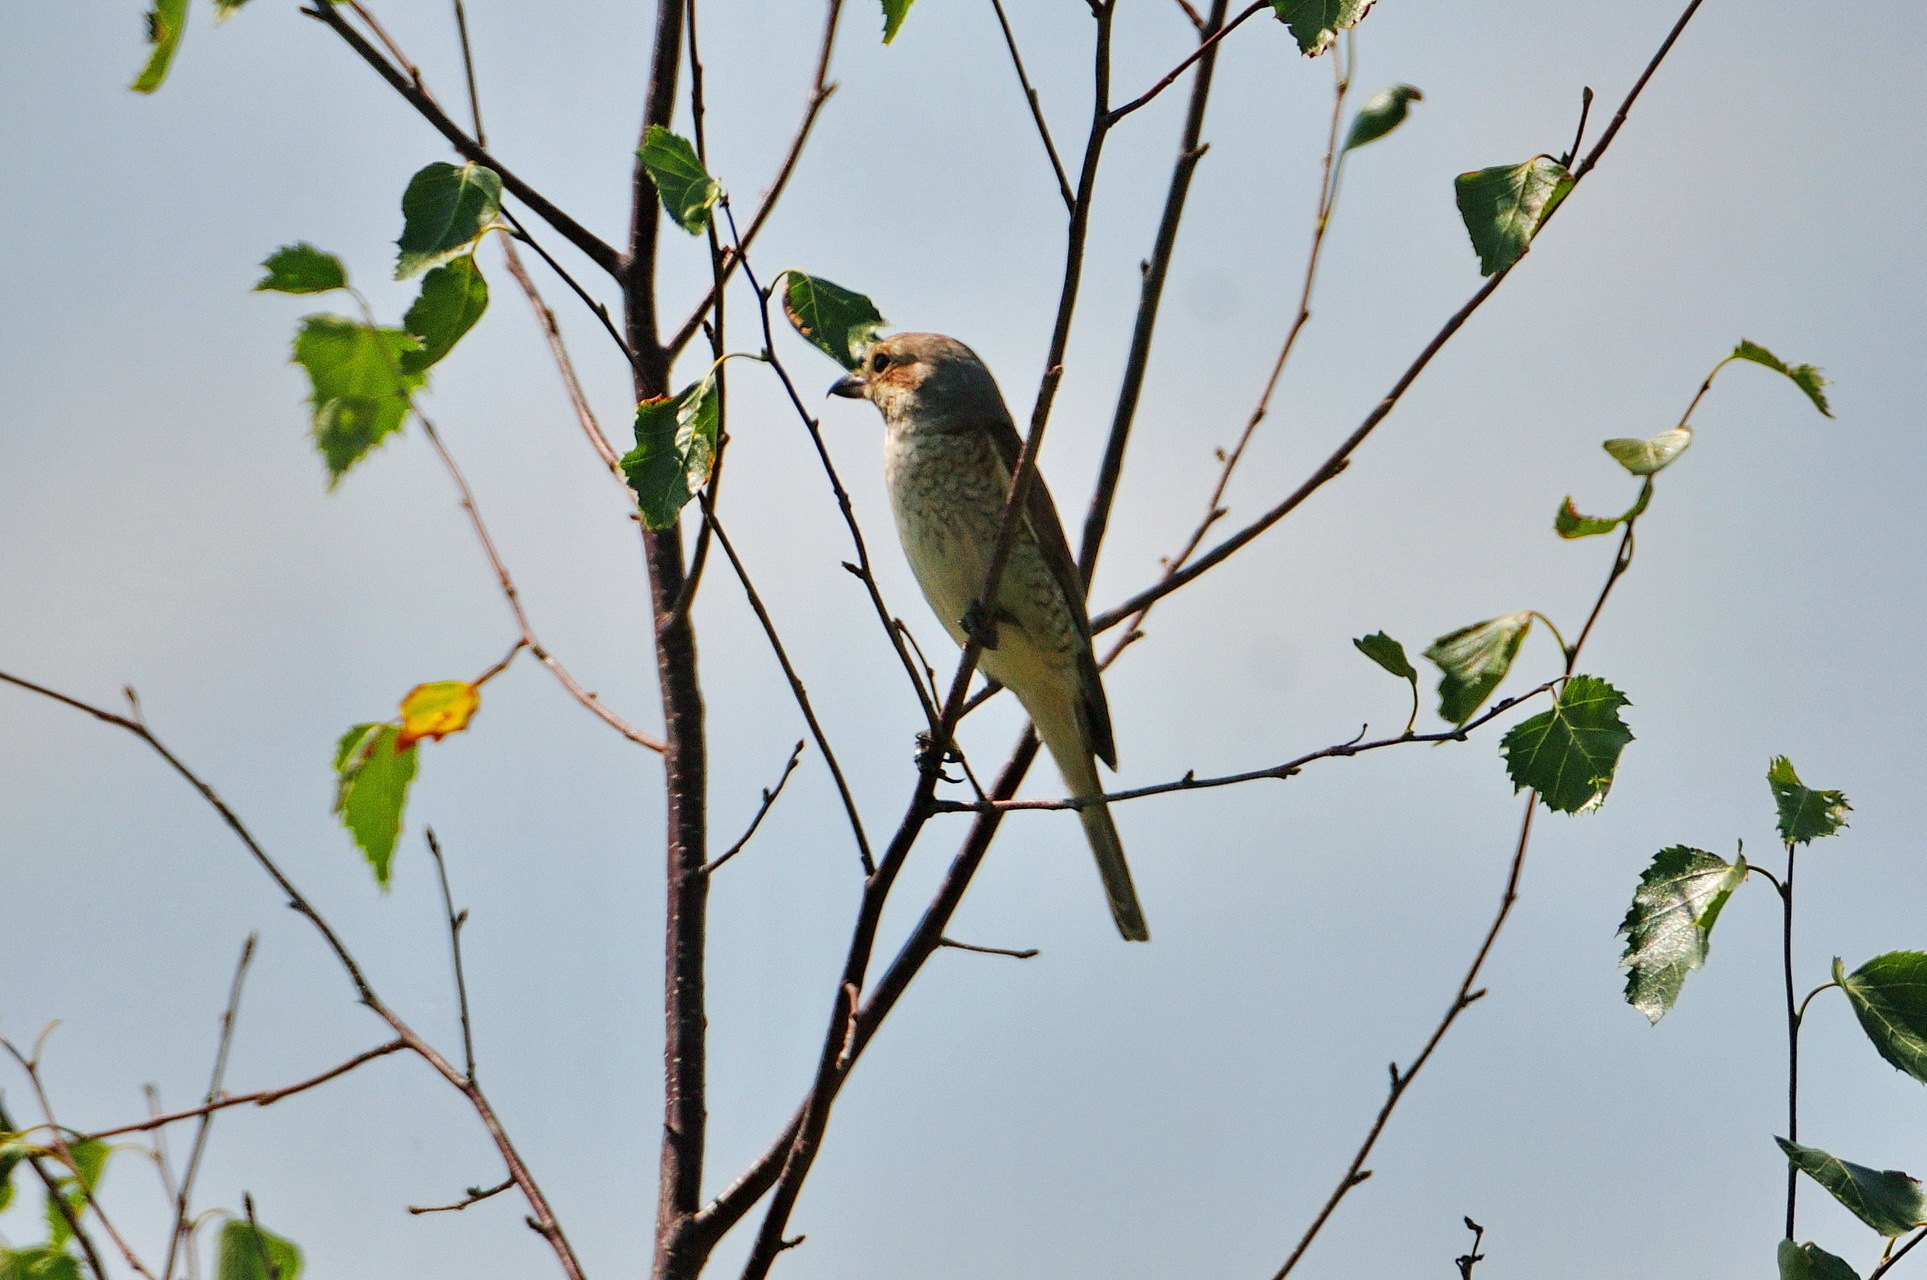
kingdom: Animalia
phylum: Chordata
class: Aves
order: Passeriformes
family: Laniidae
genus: Lanius
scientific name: Lanius collurio
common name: Red-backed shrike
